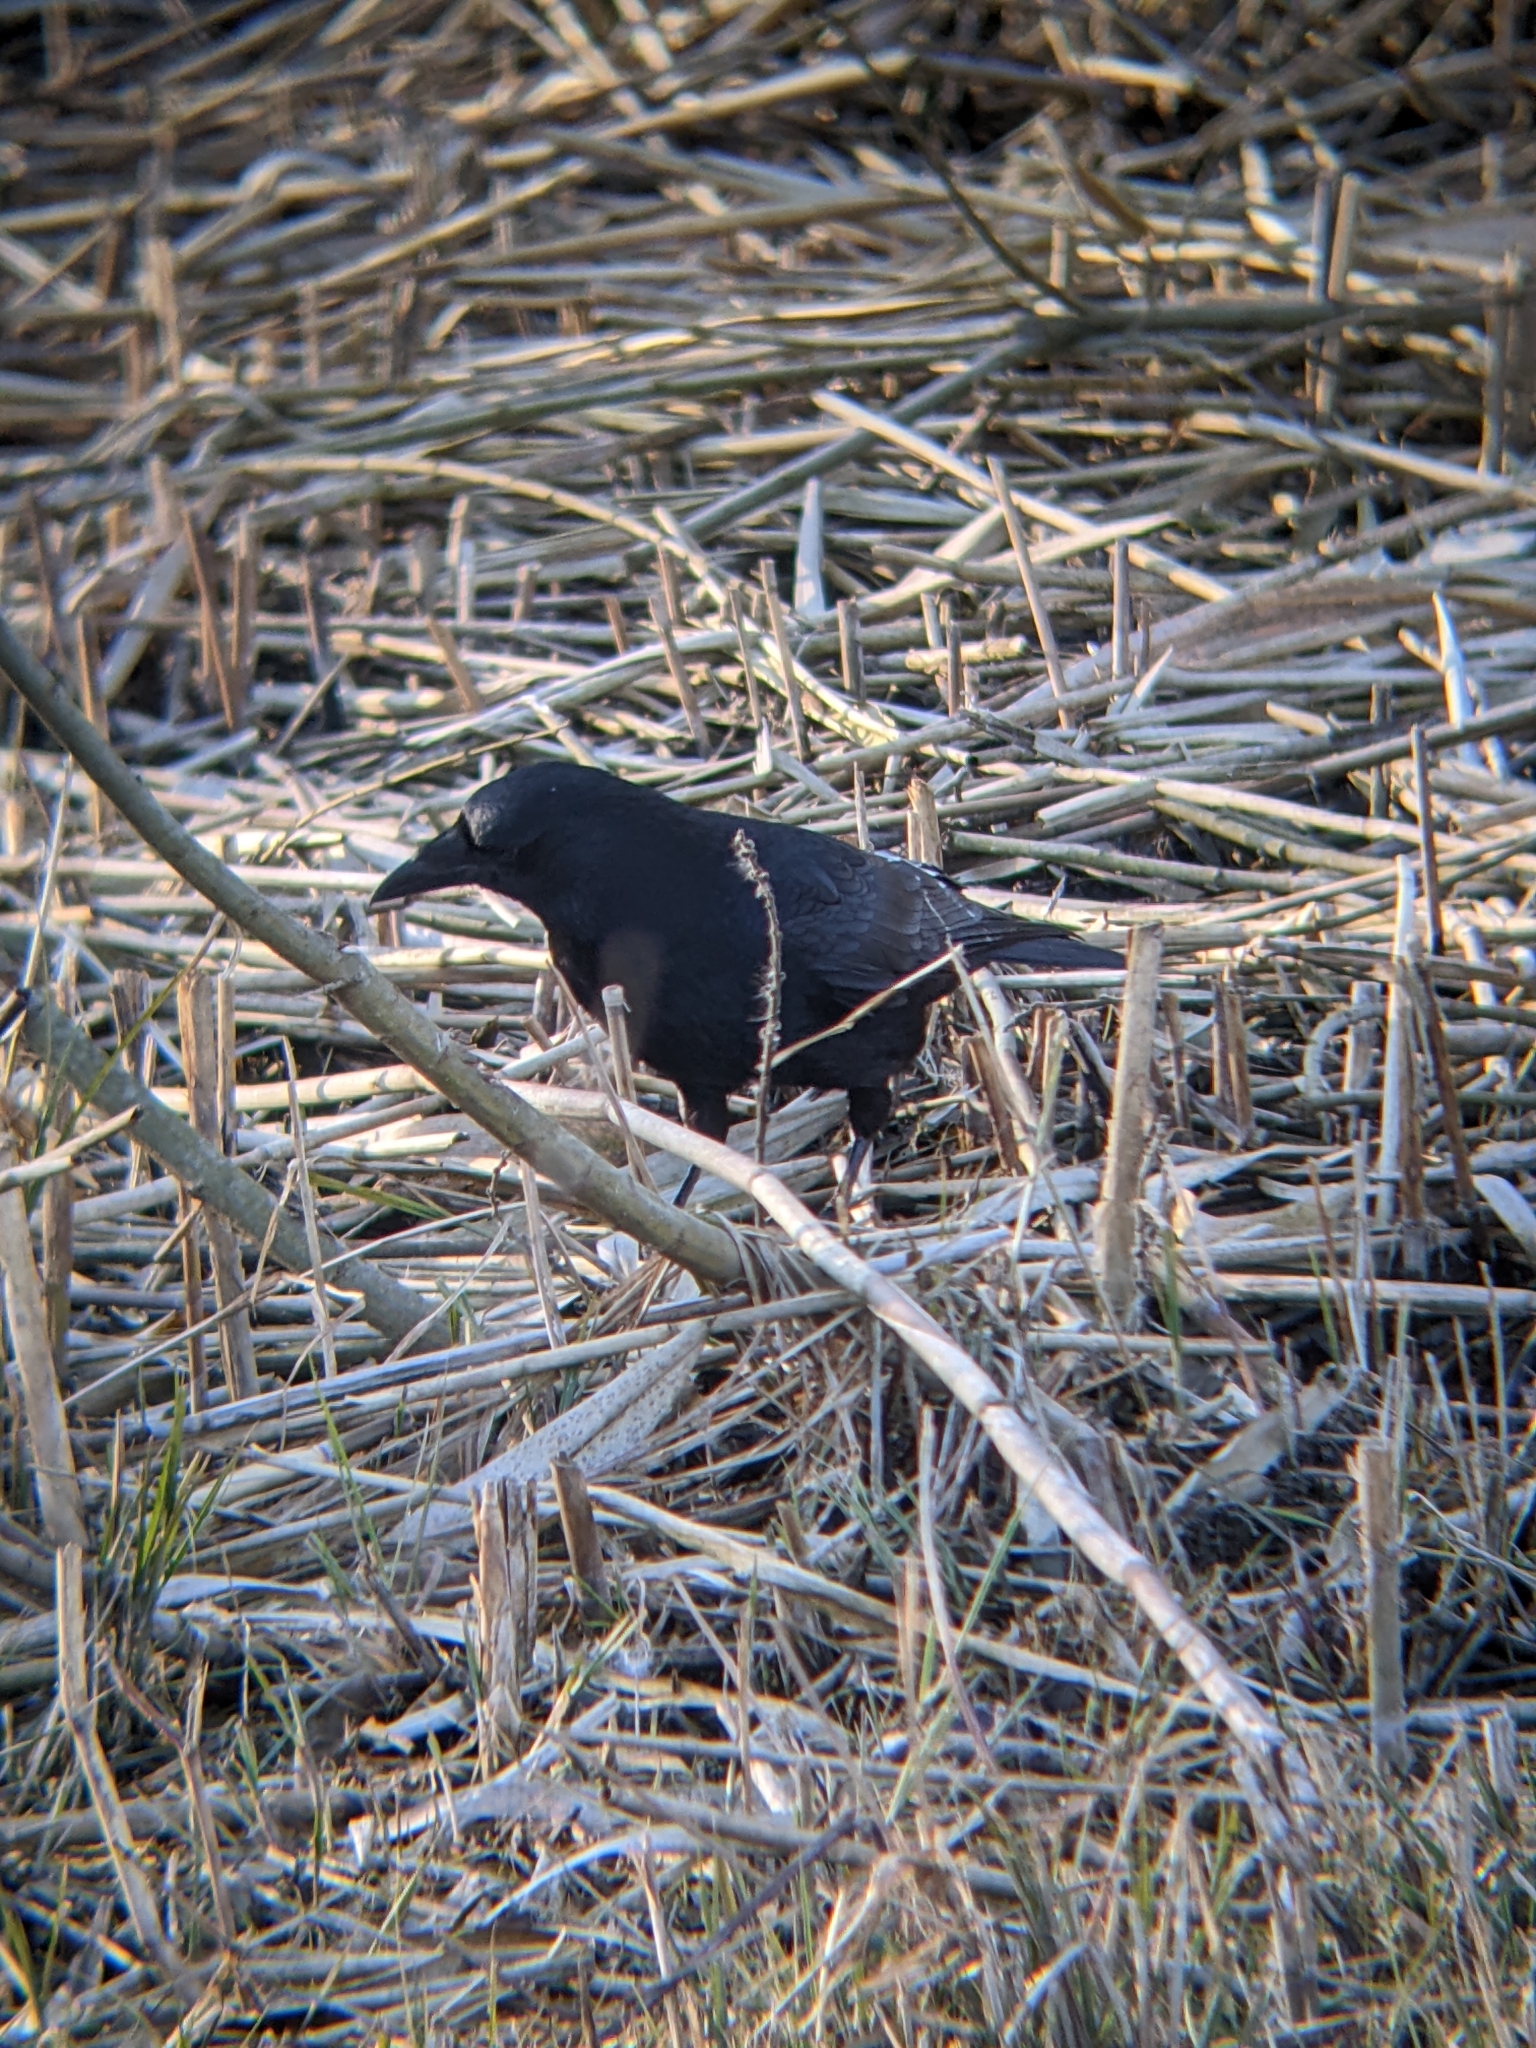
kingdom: Animalia
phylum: Chordata
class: Aves
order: Passeriformes
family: Corvidae
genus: Corvus
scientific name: Corvus corone
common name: Carrion crow
